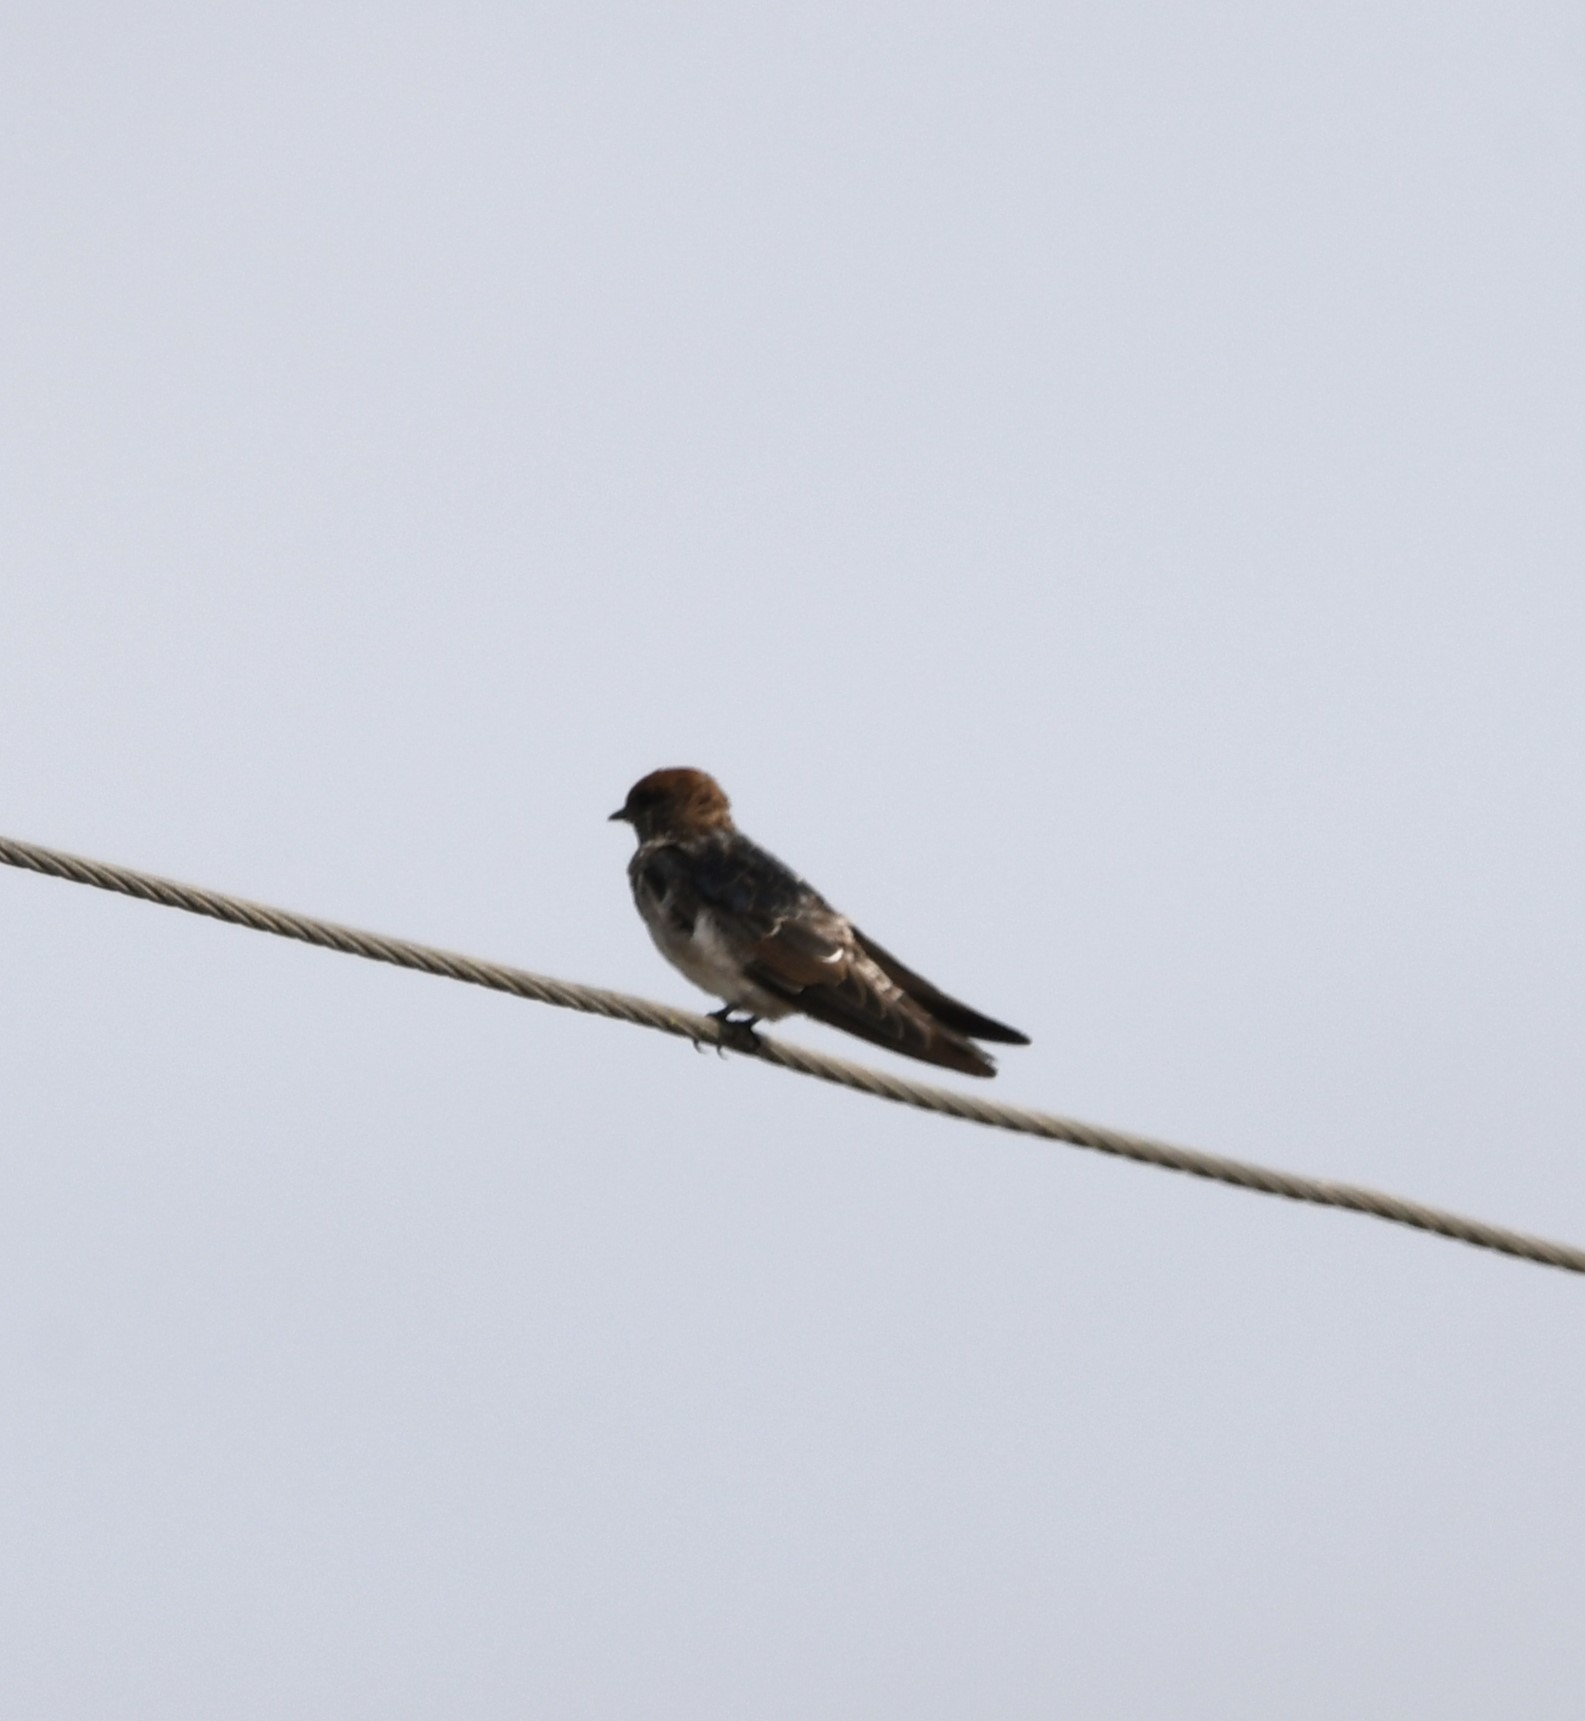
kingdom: Animalia
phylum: Chordata
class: Aves
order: Passeriformes
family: Hirundinidae
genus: Petrochelidon
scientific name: Petrochelidon fluvicola
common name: Streak-throated swallow
